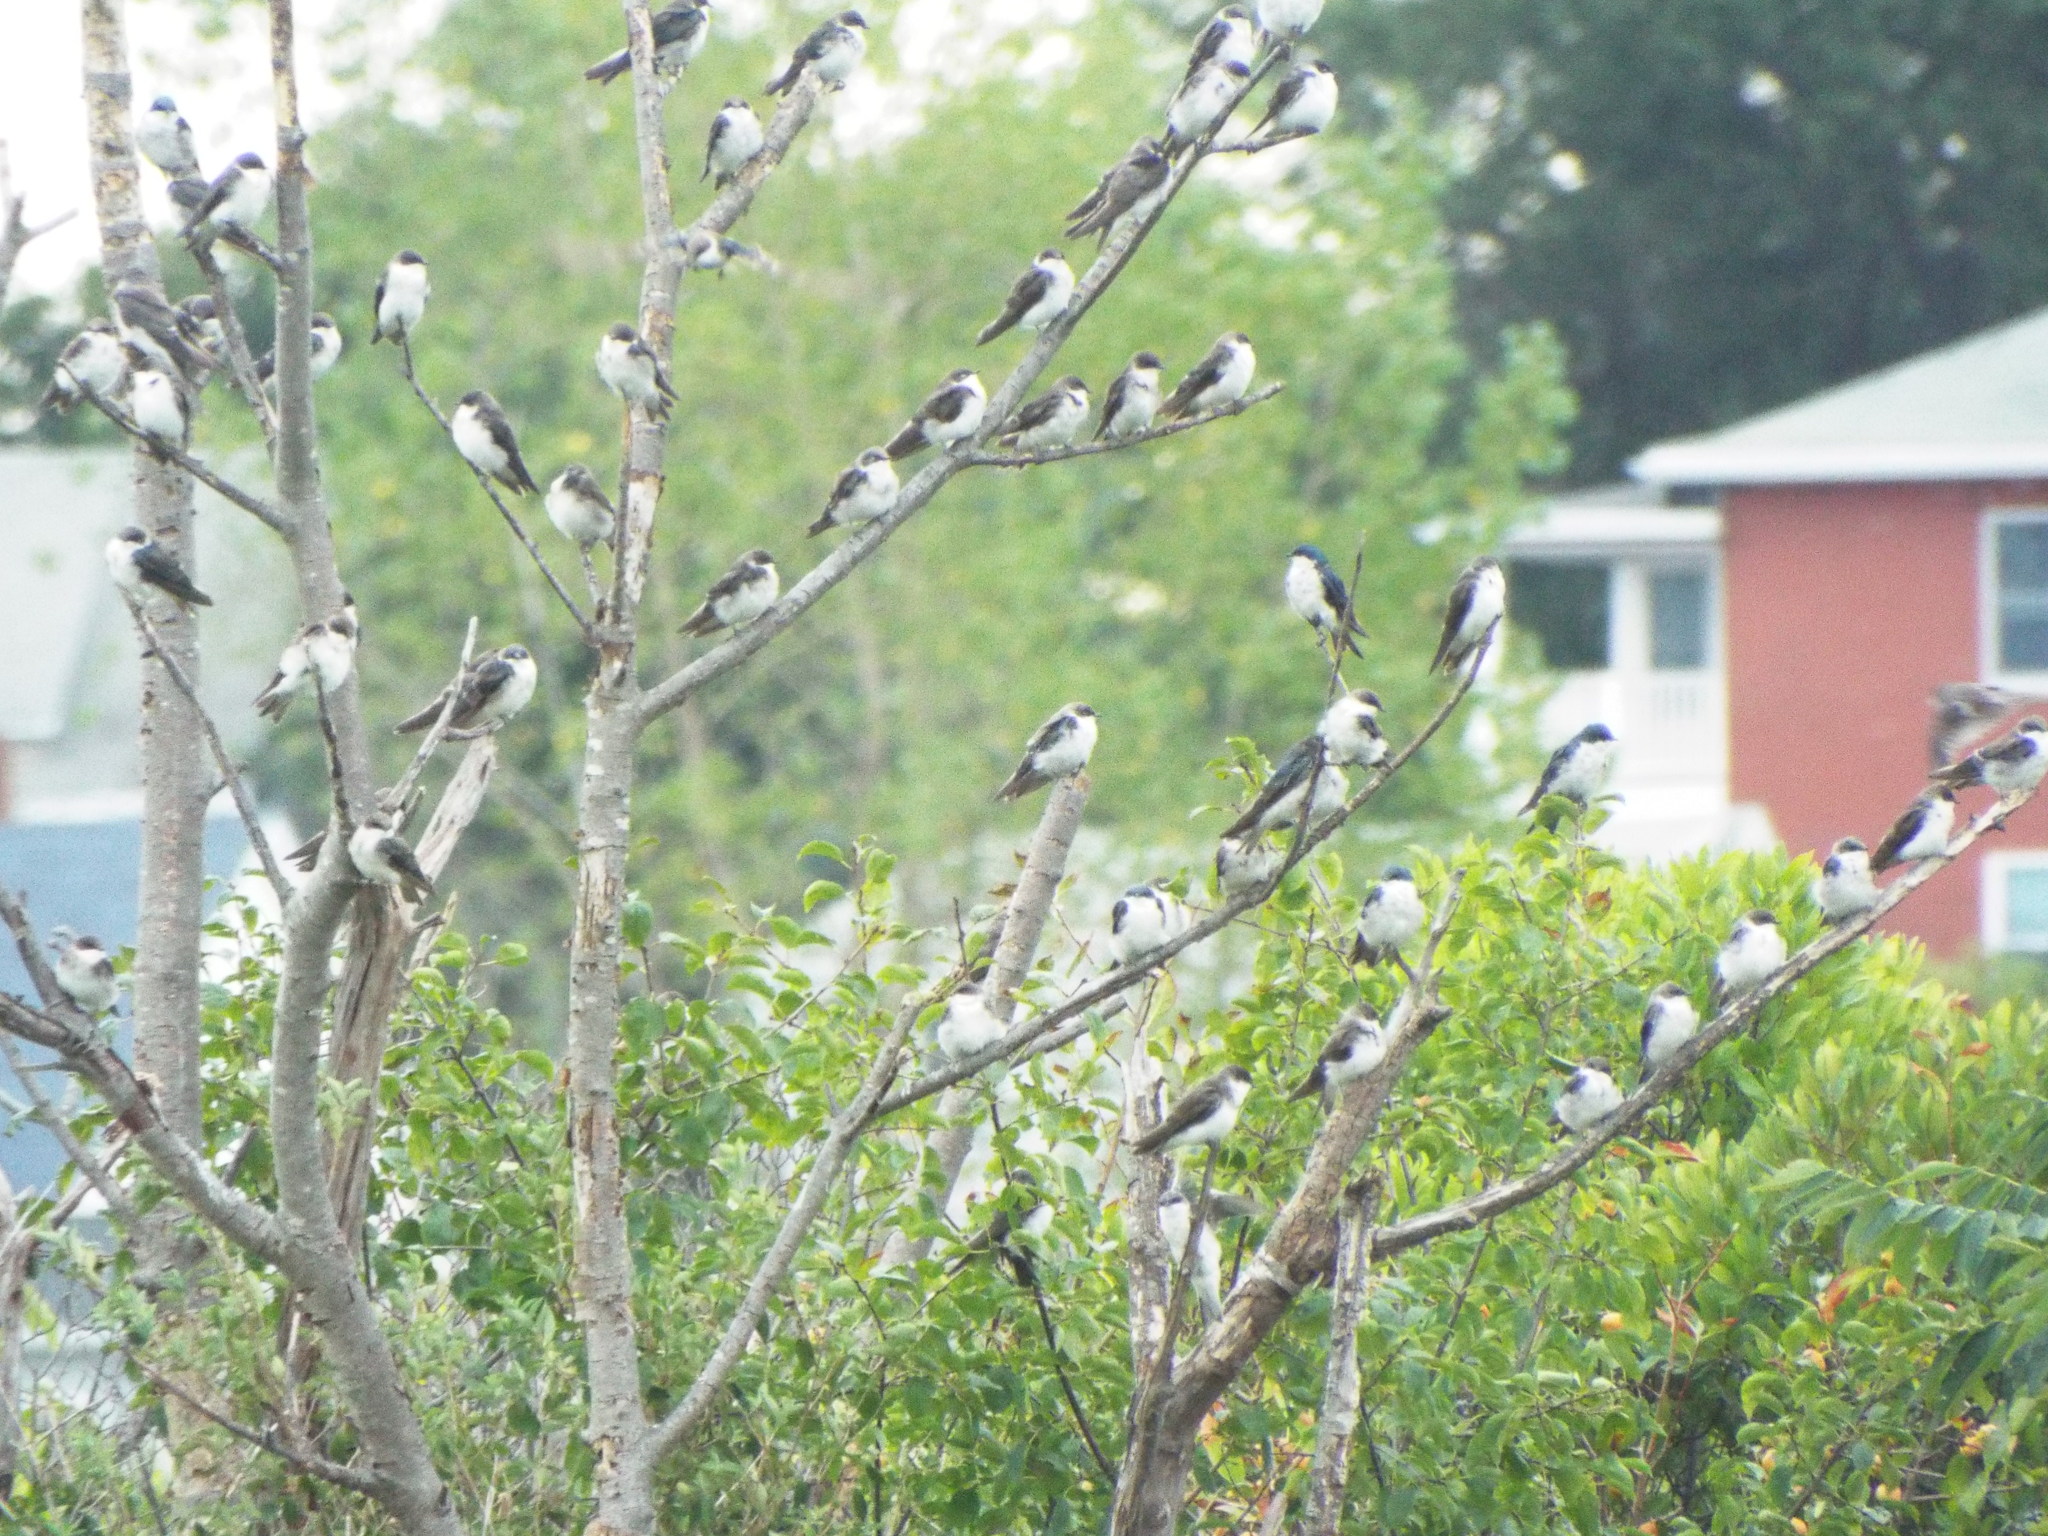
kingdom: Animalia
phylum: Chordata
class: Aves
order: Passeriformes
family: Hirundinidae
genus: Tachycineta
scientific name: Tachycineta bicolor
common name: Tree swallow
